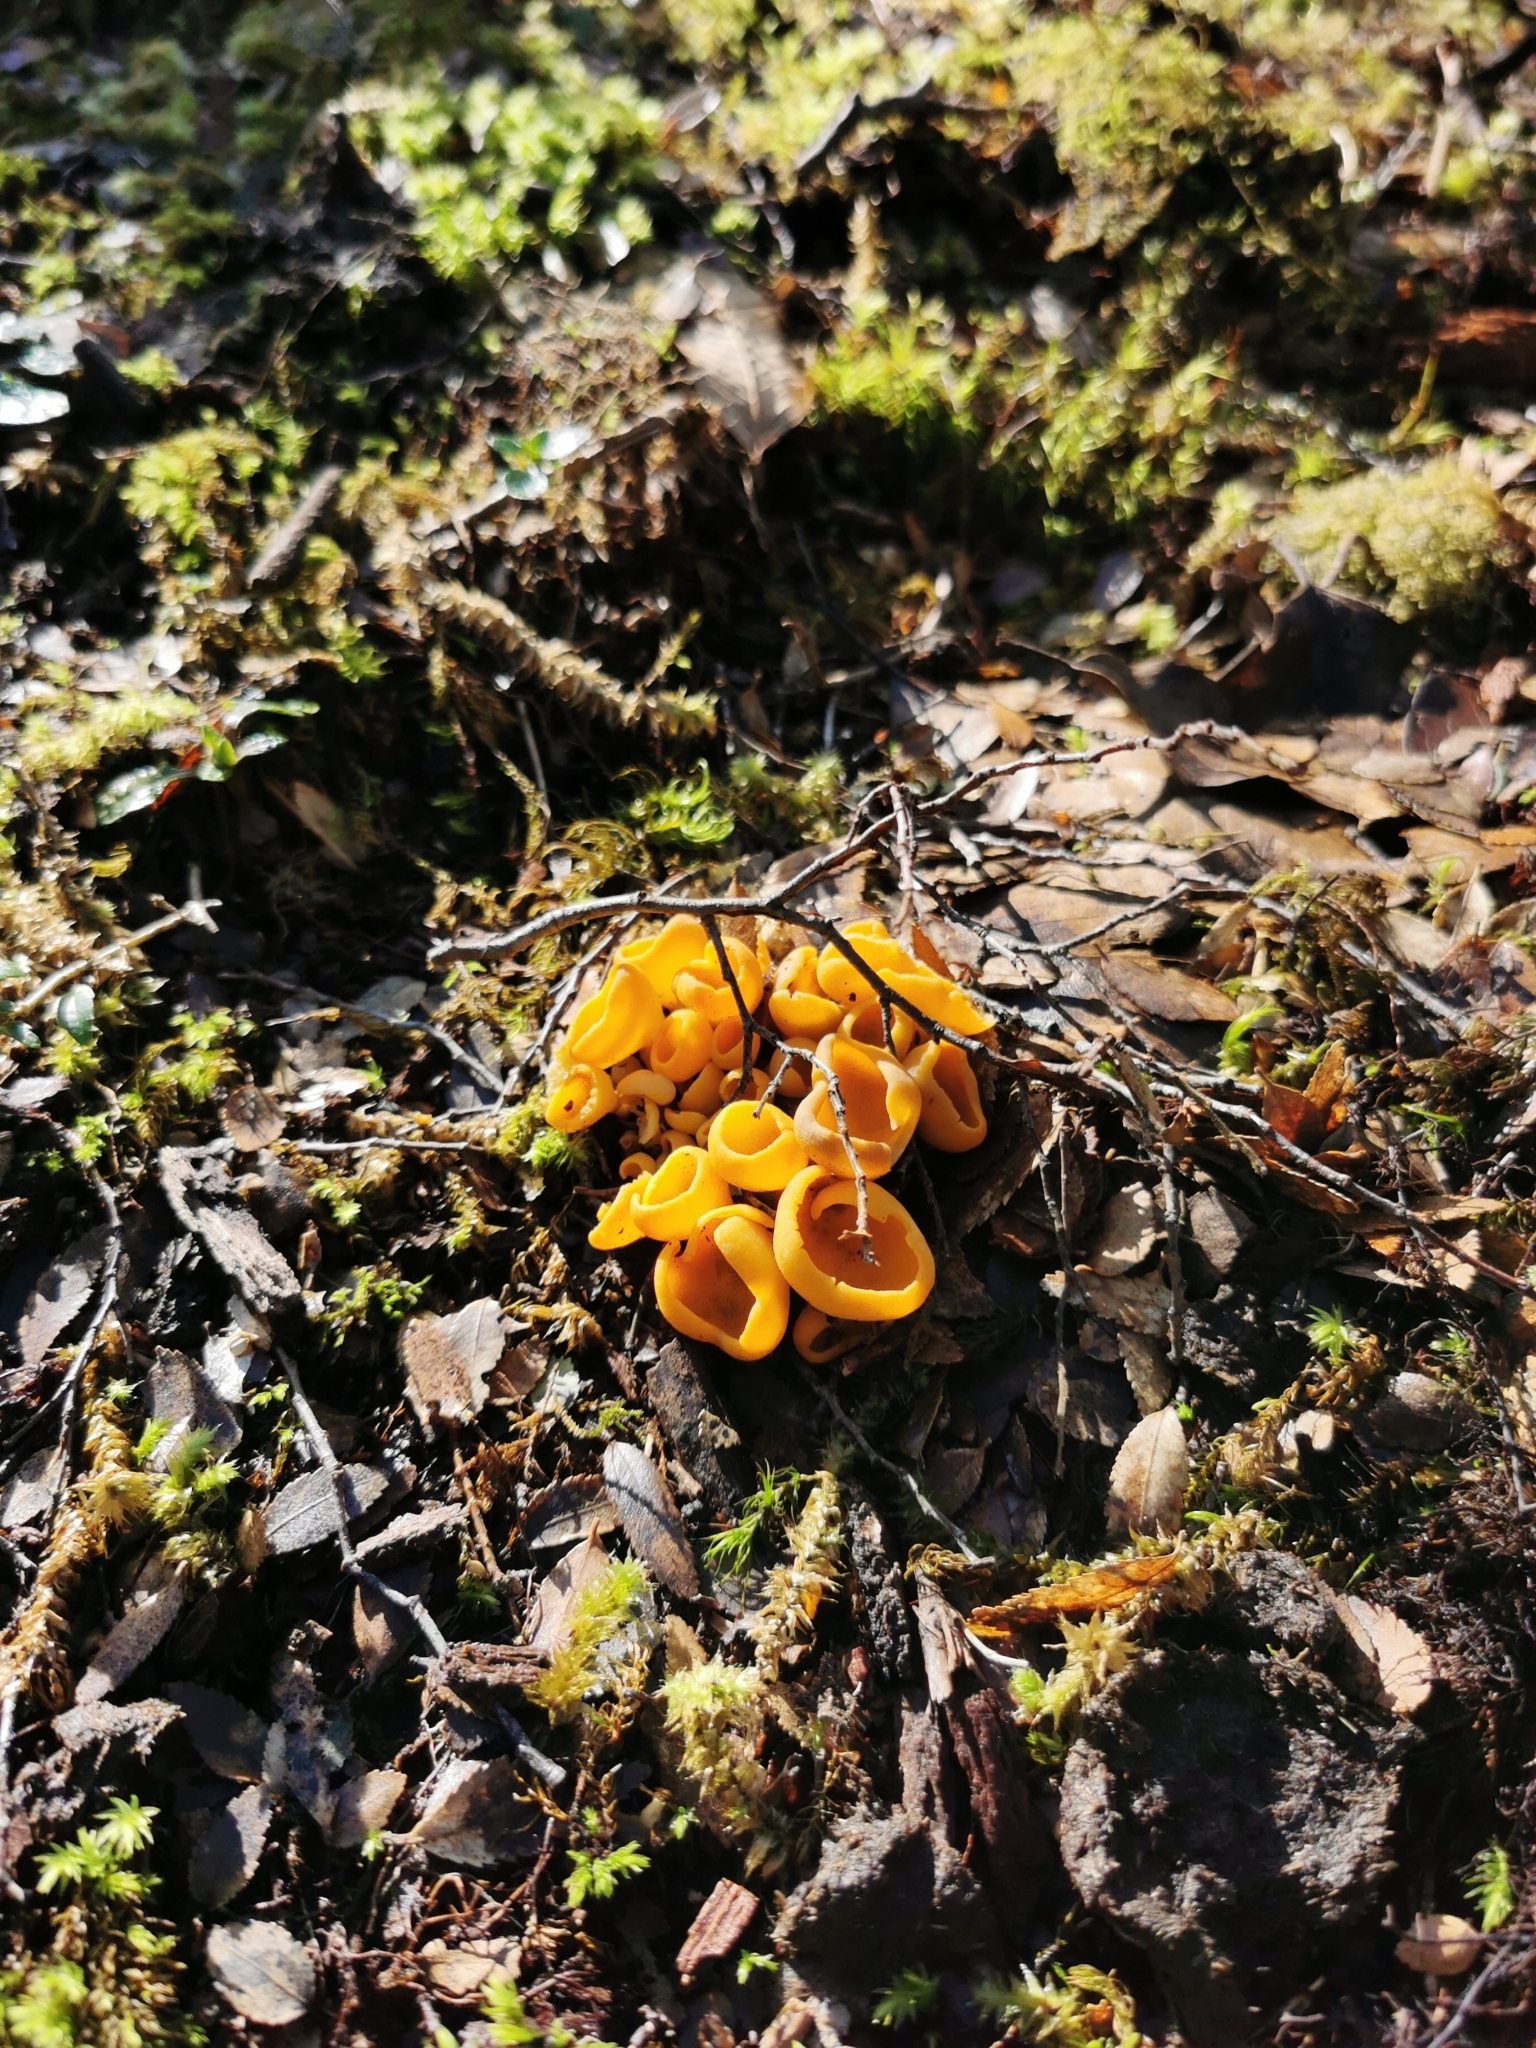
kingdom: Fungi
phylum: Ascomycota
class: Pezizomycetes
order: Pezizales
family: Pyronemataceae
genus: Sowerbyella
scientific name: Sowerbyella rhenana
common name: Stalked orange peel fungus
